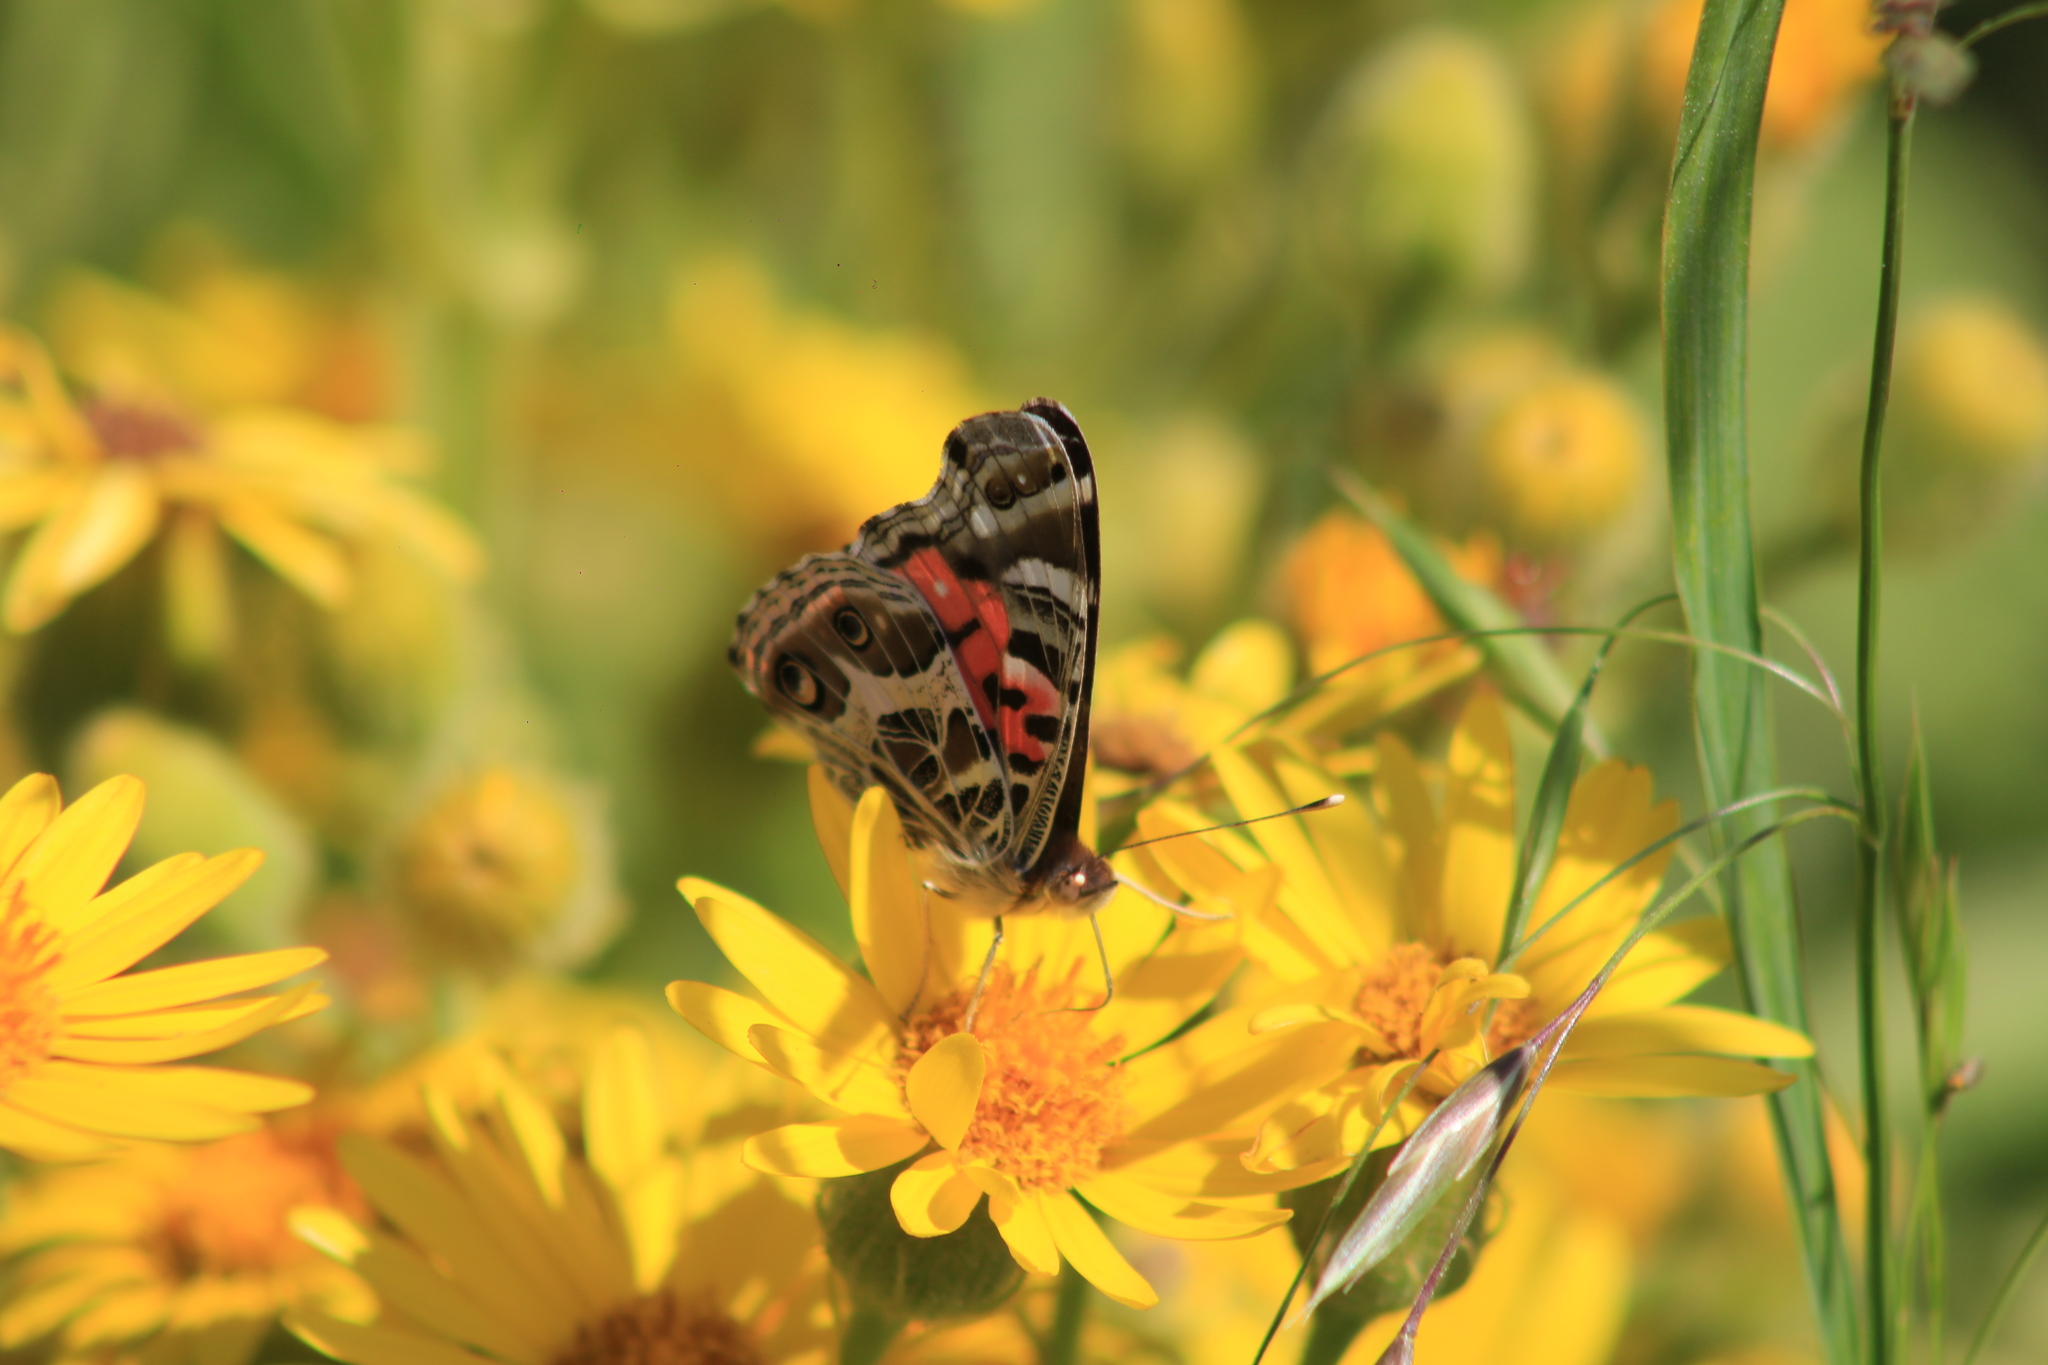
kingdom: Animalia
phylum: Arthropoda
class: Insecta
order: Lepidoptera
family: Nymphalidae
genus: Vanessa
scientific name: Vanessa braziliensis
